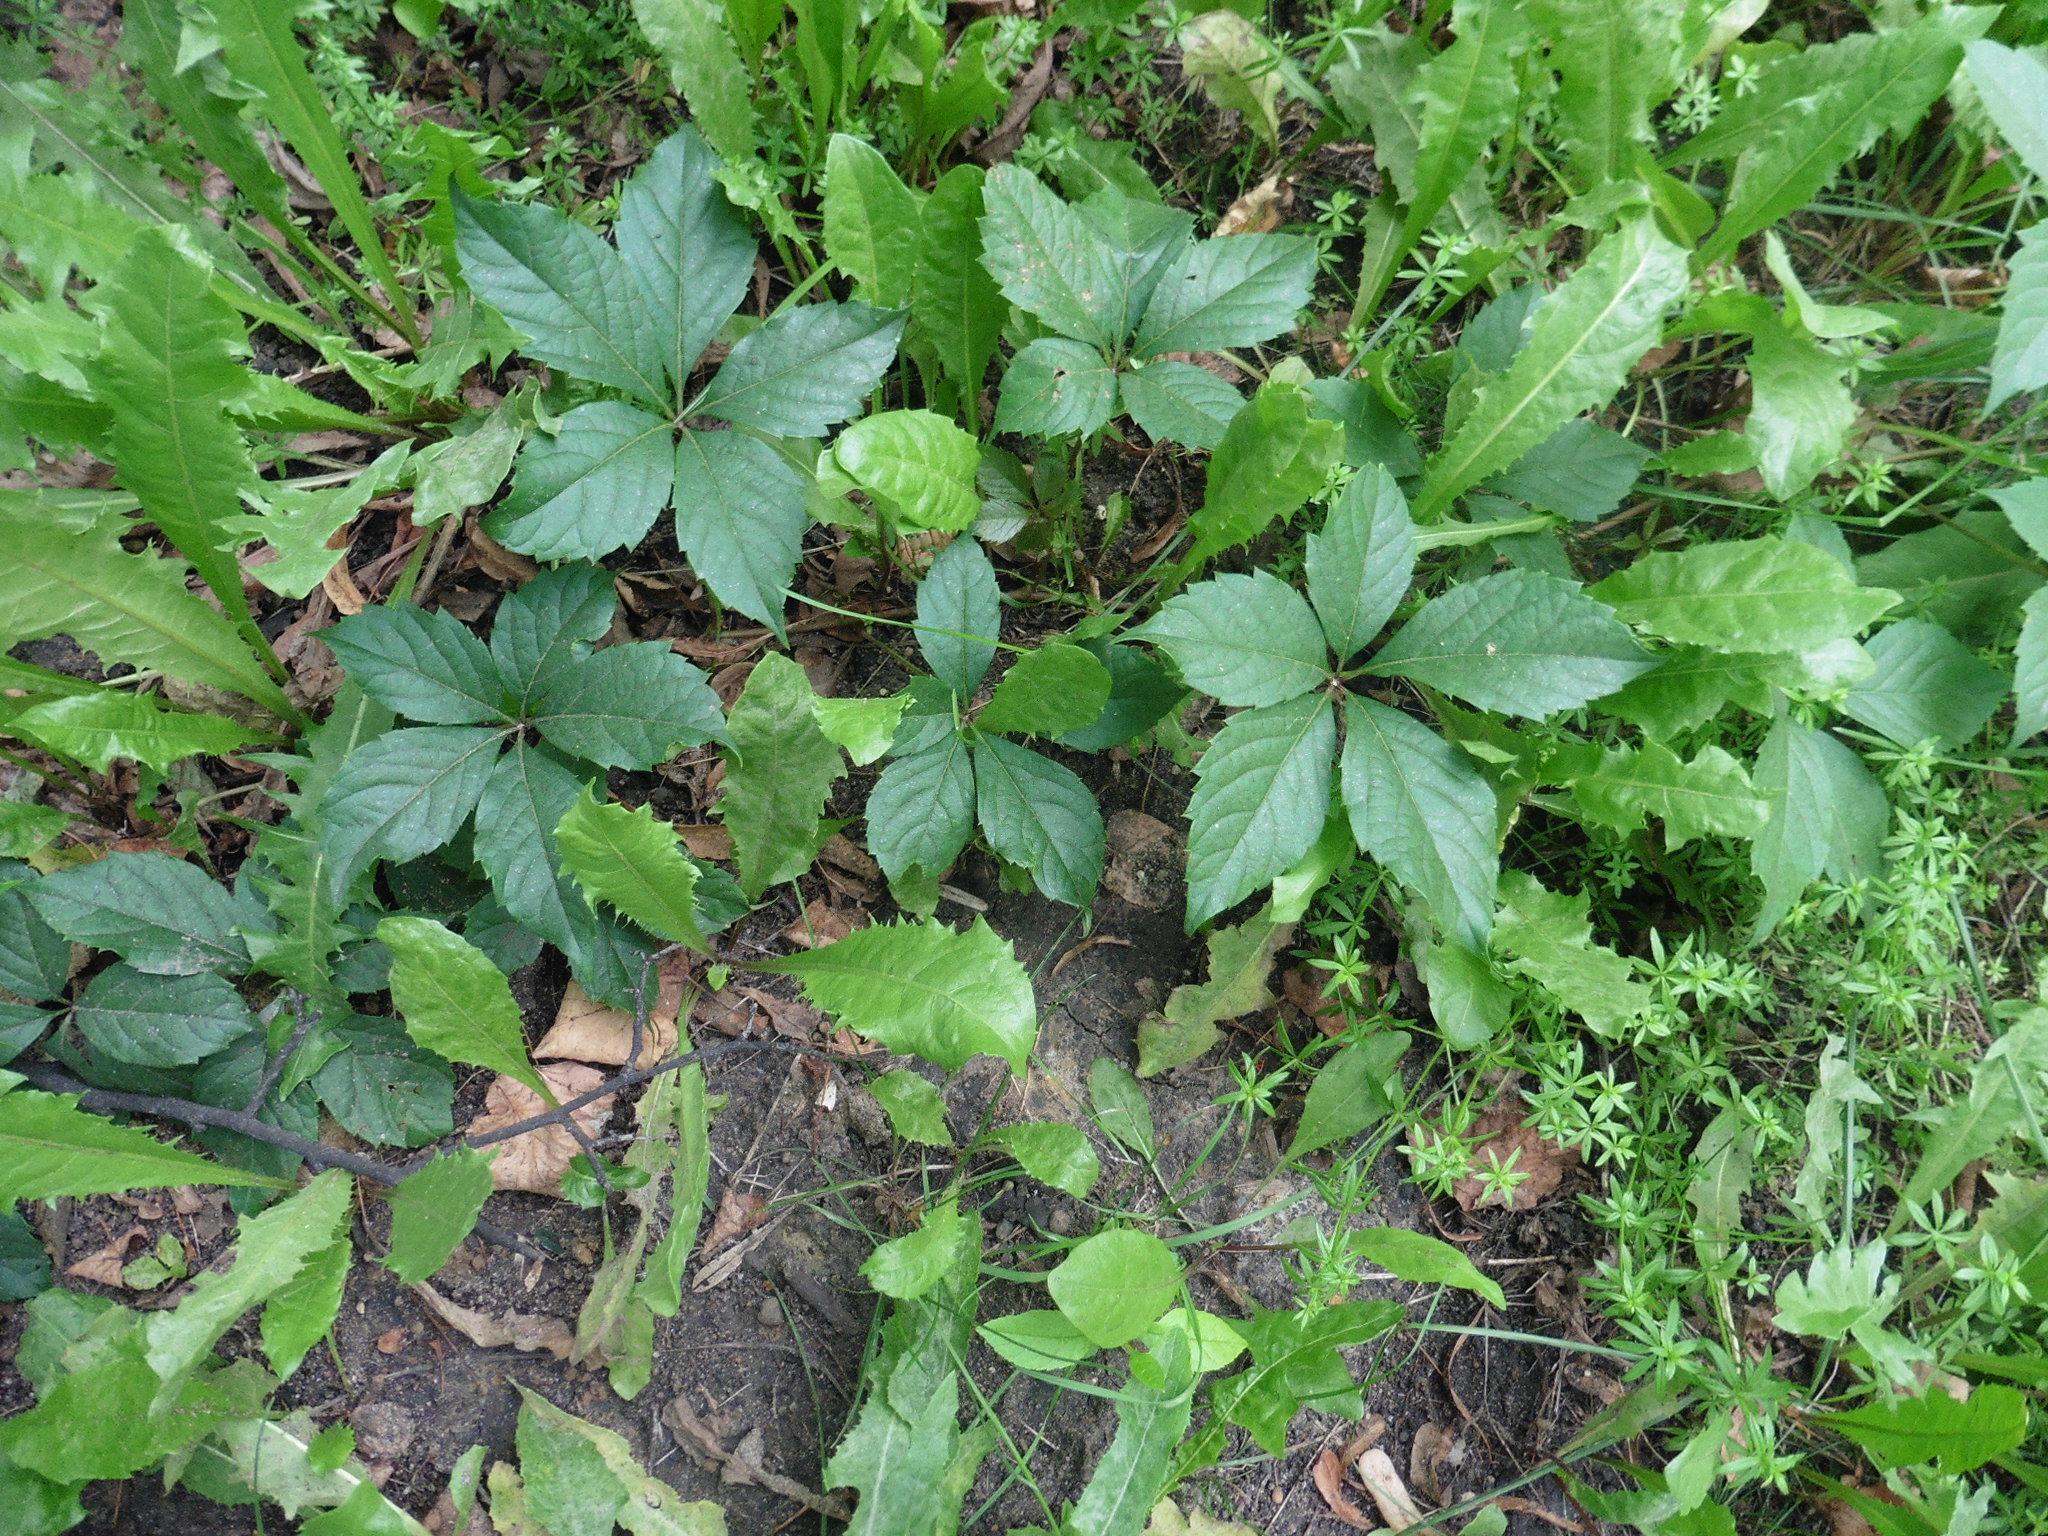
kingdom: Plantae
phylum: Tracheophyta
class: Magnoliopsida
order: Vitales
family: Vitaceae
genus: Parthenocissus
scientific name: Parthenocissus inserta
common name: False virginia-creeper
